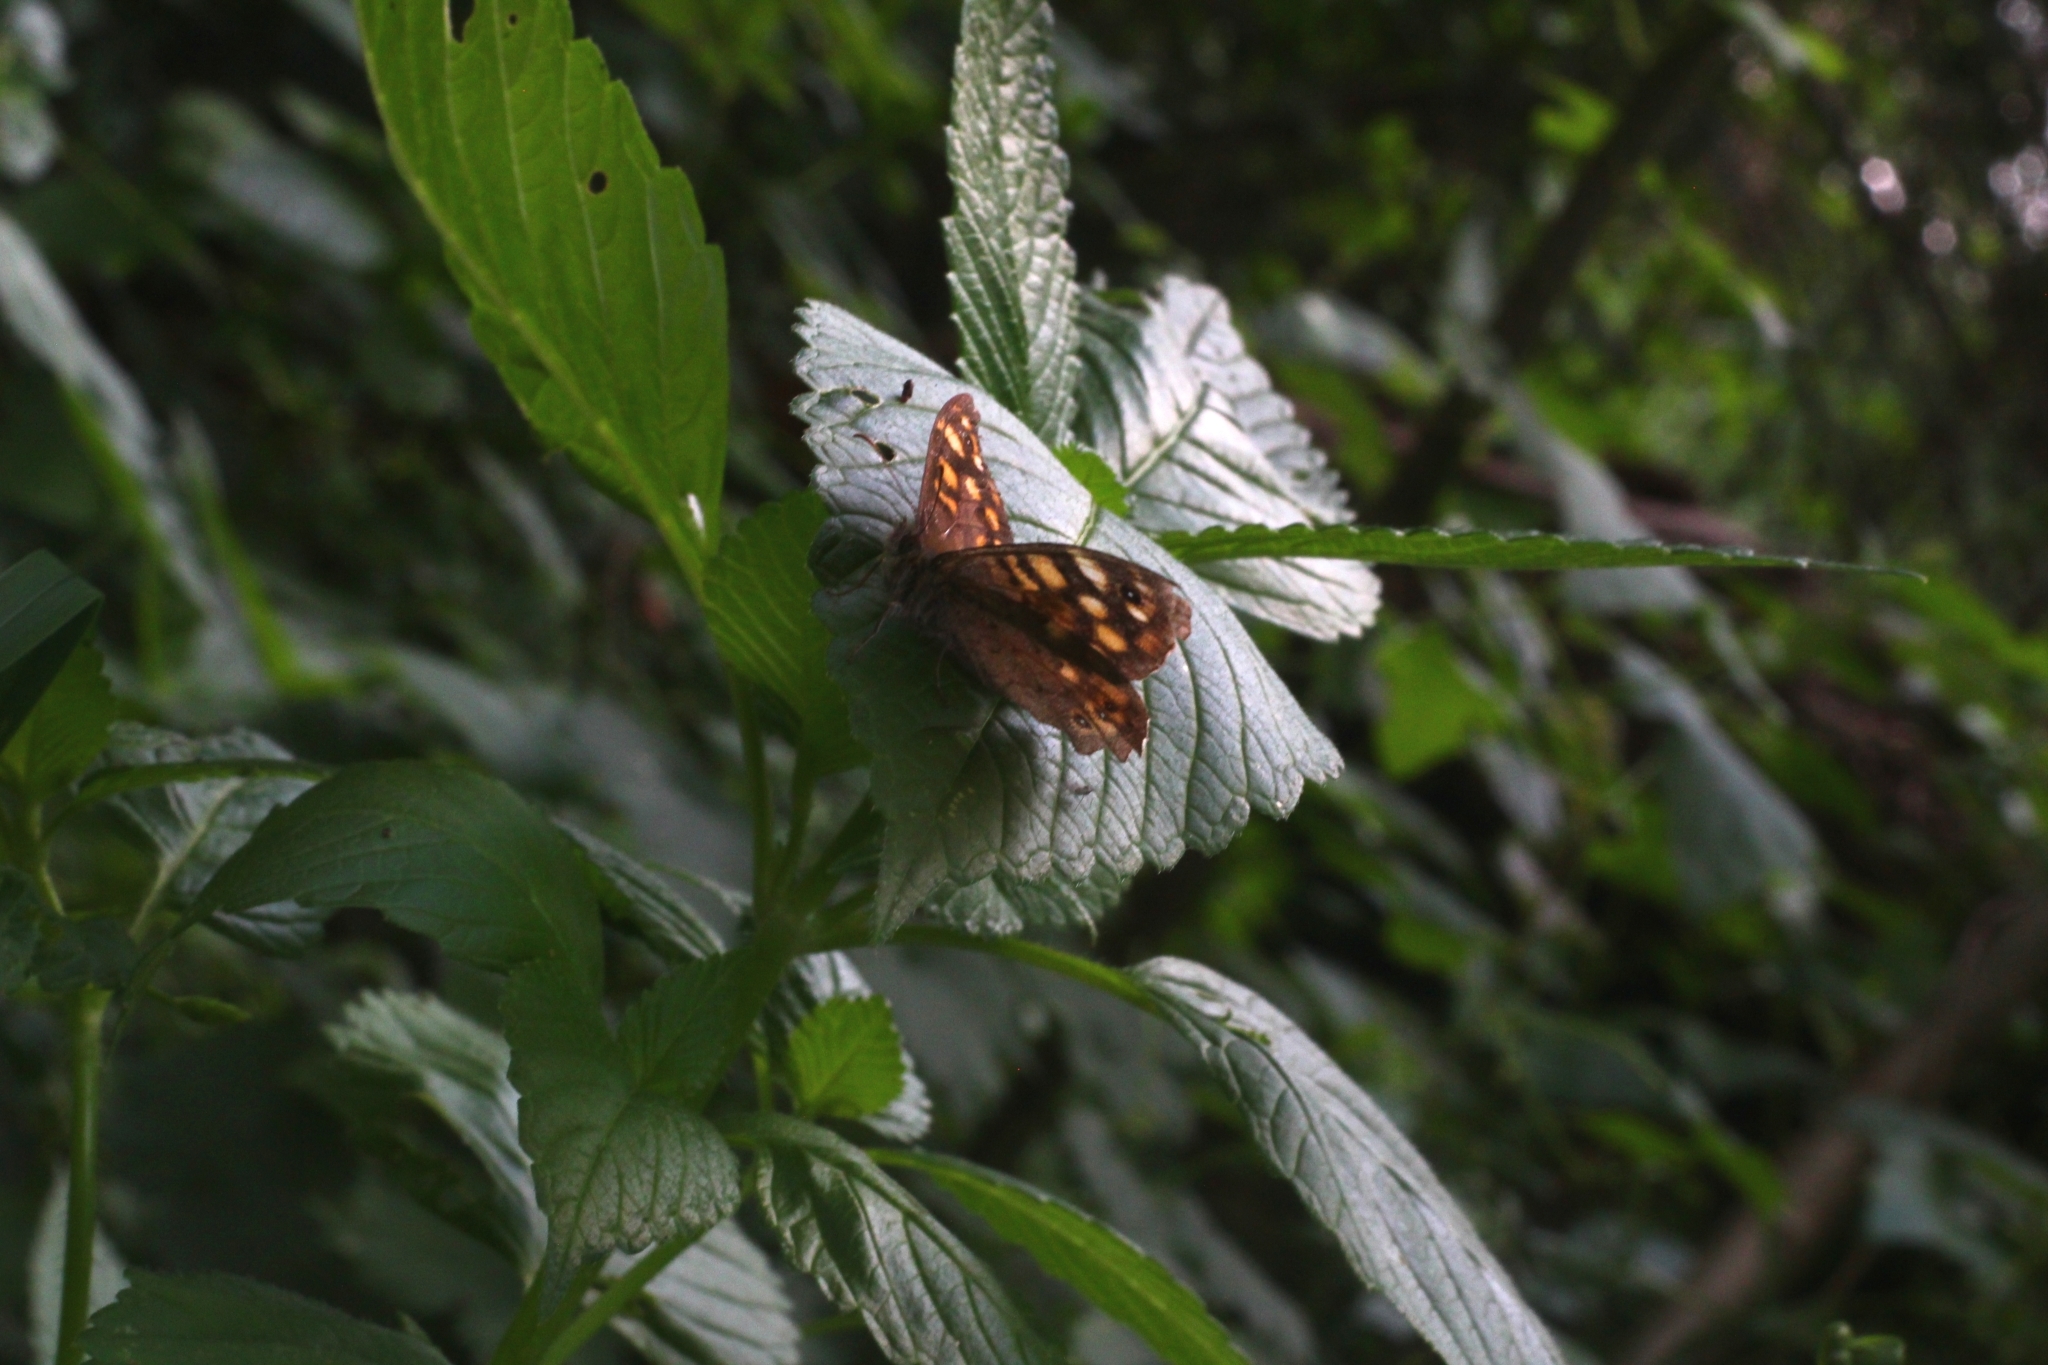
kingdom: Animalia
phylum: Arthropoda
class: Insecta
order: Lepidoptera
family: Nymphalidae
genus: Pararge
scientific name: Pararge aegeria
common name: Speckled wood
